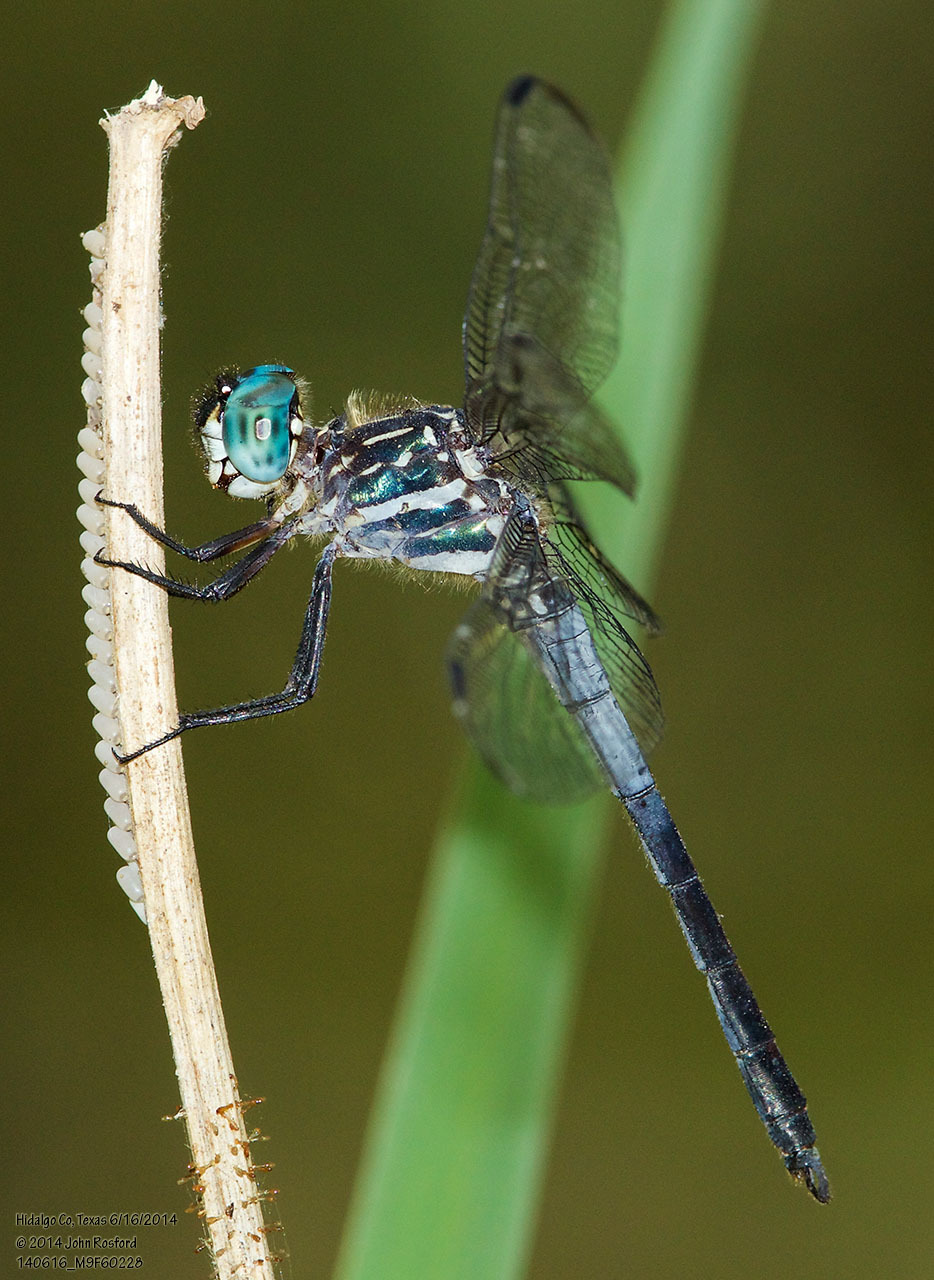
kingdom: Animalia
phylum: Arthropoda
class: Insecta
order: Odonata
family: Libellulidae
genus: Cannaphila
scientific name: Cannaphila insularis
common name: Gray-waisted skimmer
